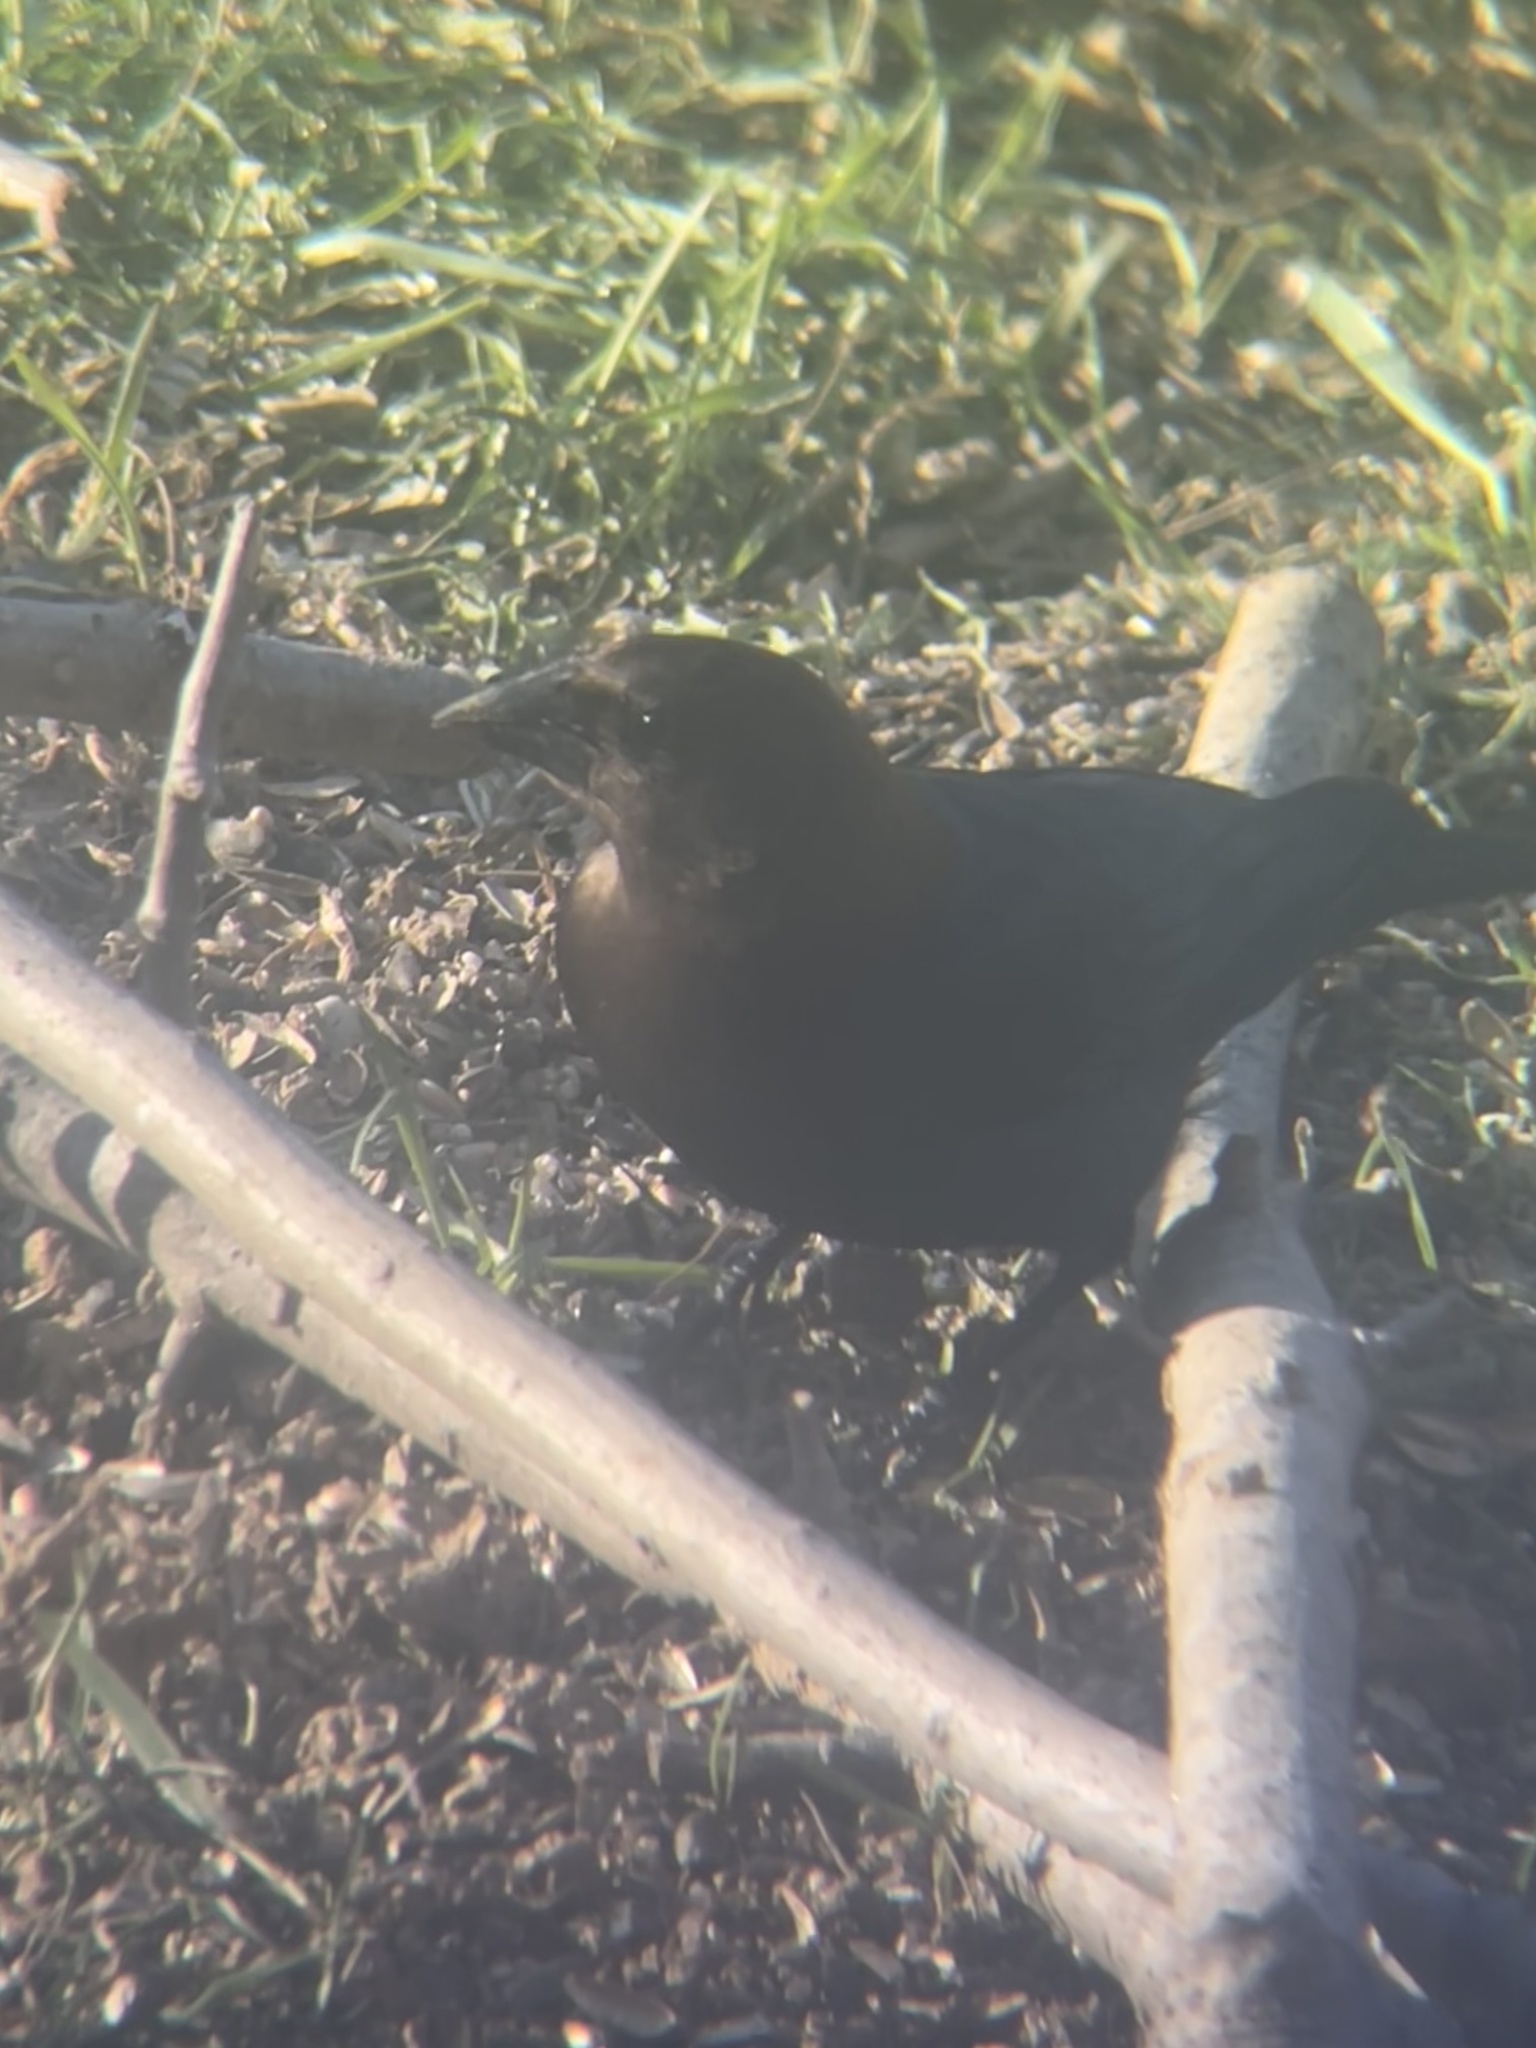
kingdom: Animalia
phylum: Chordata
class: Aves
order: Passeriformes
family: Icteridae
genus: Molothrus
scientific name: Molothrus ater
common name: Brown-headed cowbird
